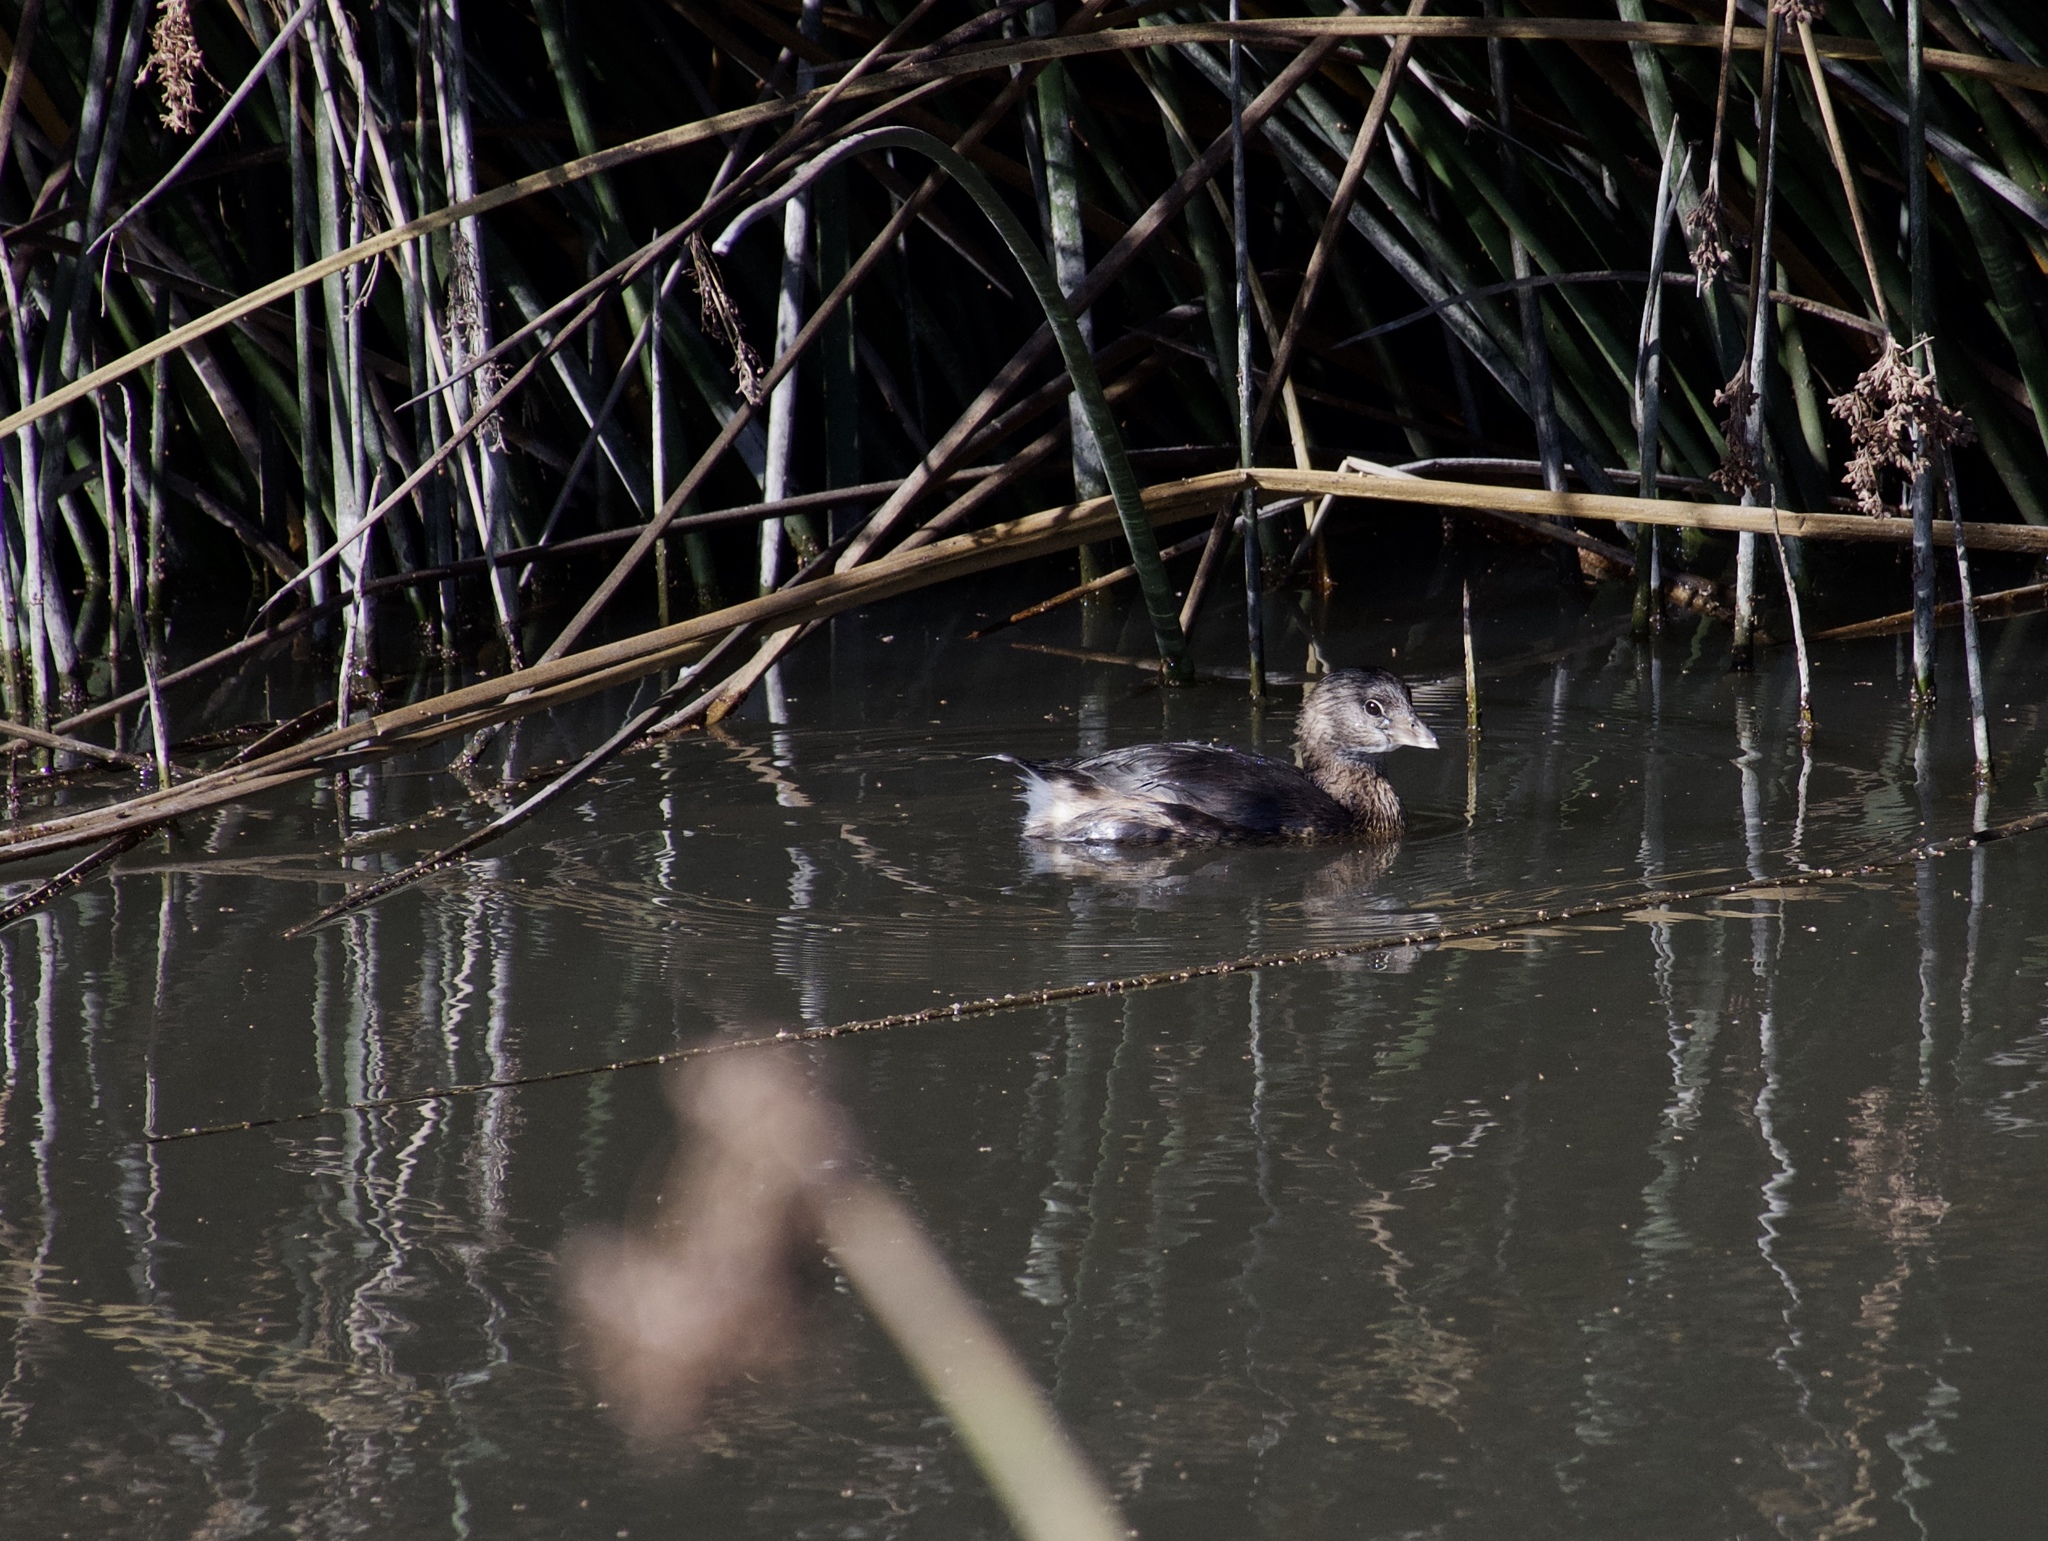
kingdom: Animalia
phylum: Chordata
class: Aves
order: Podicipediformes
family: Podicipedidae
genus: Podilymbus
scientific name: Podilymbus podiceps
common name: Pied-billed grebe
